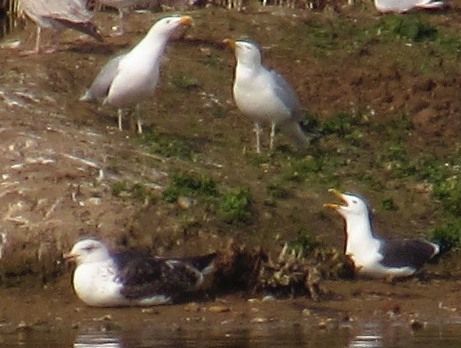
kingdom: Animalia
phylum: Chordata
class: Aves
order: Charadriiformes
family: Laridae
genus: Larus
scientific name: Larus argentatus
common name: Herring gull
